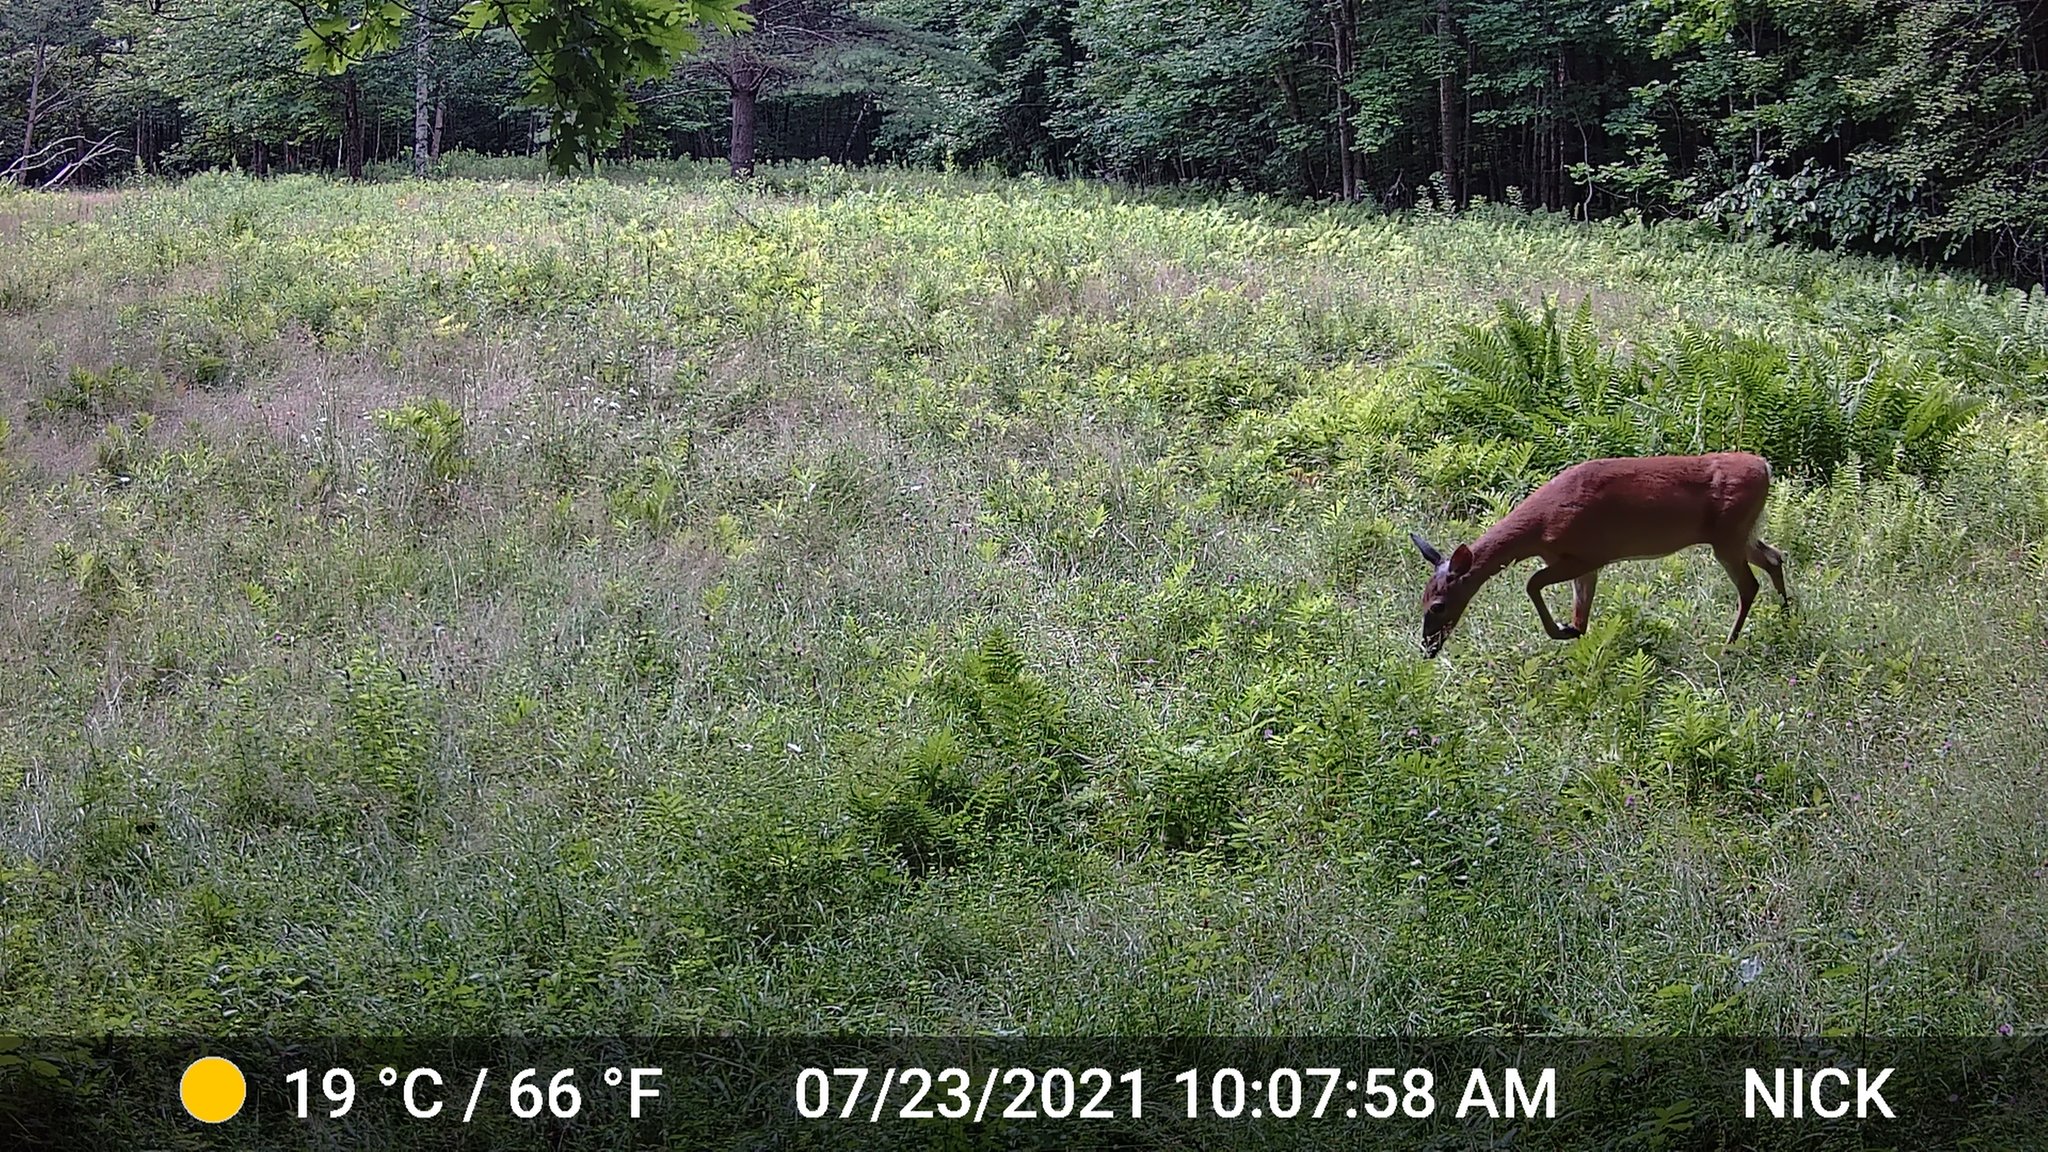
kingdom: Animalia
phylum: Chordata
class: Mammalia
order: Artiodactyla
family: Cervidae
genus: Odocoileus
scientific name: Odocoileus virginianus
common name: White-tailed deer
